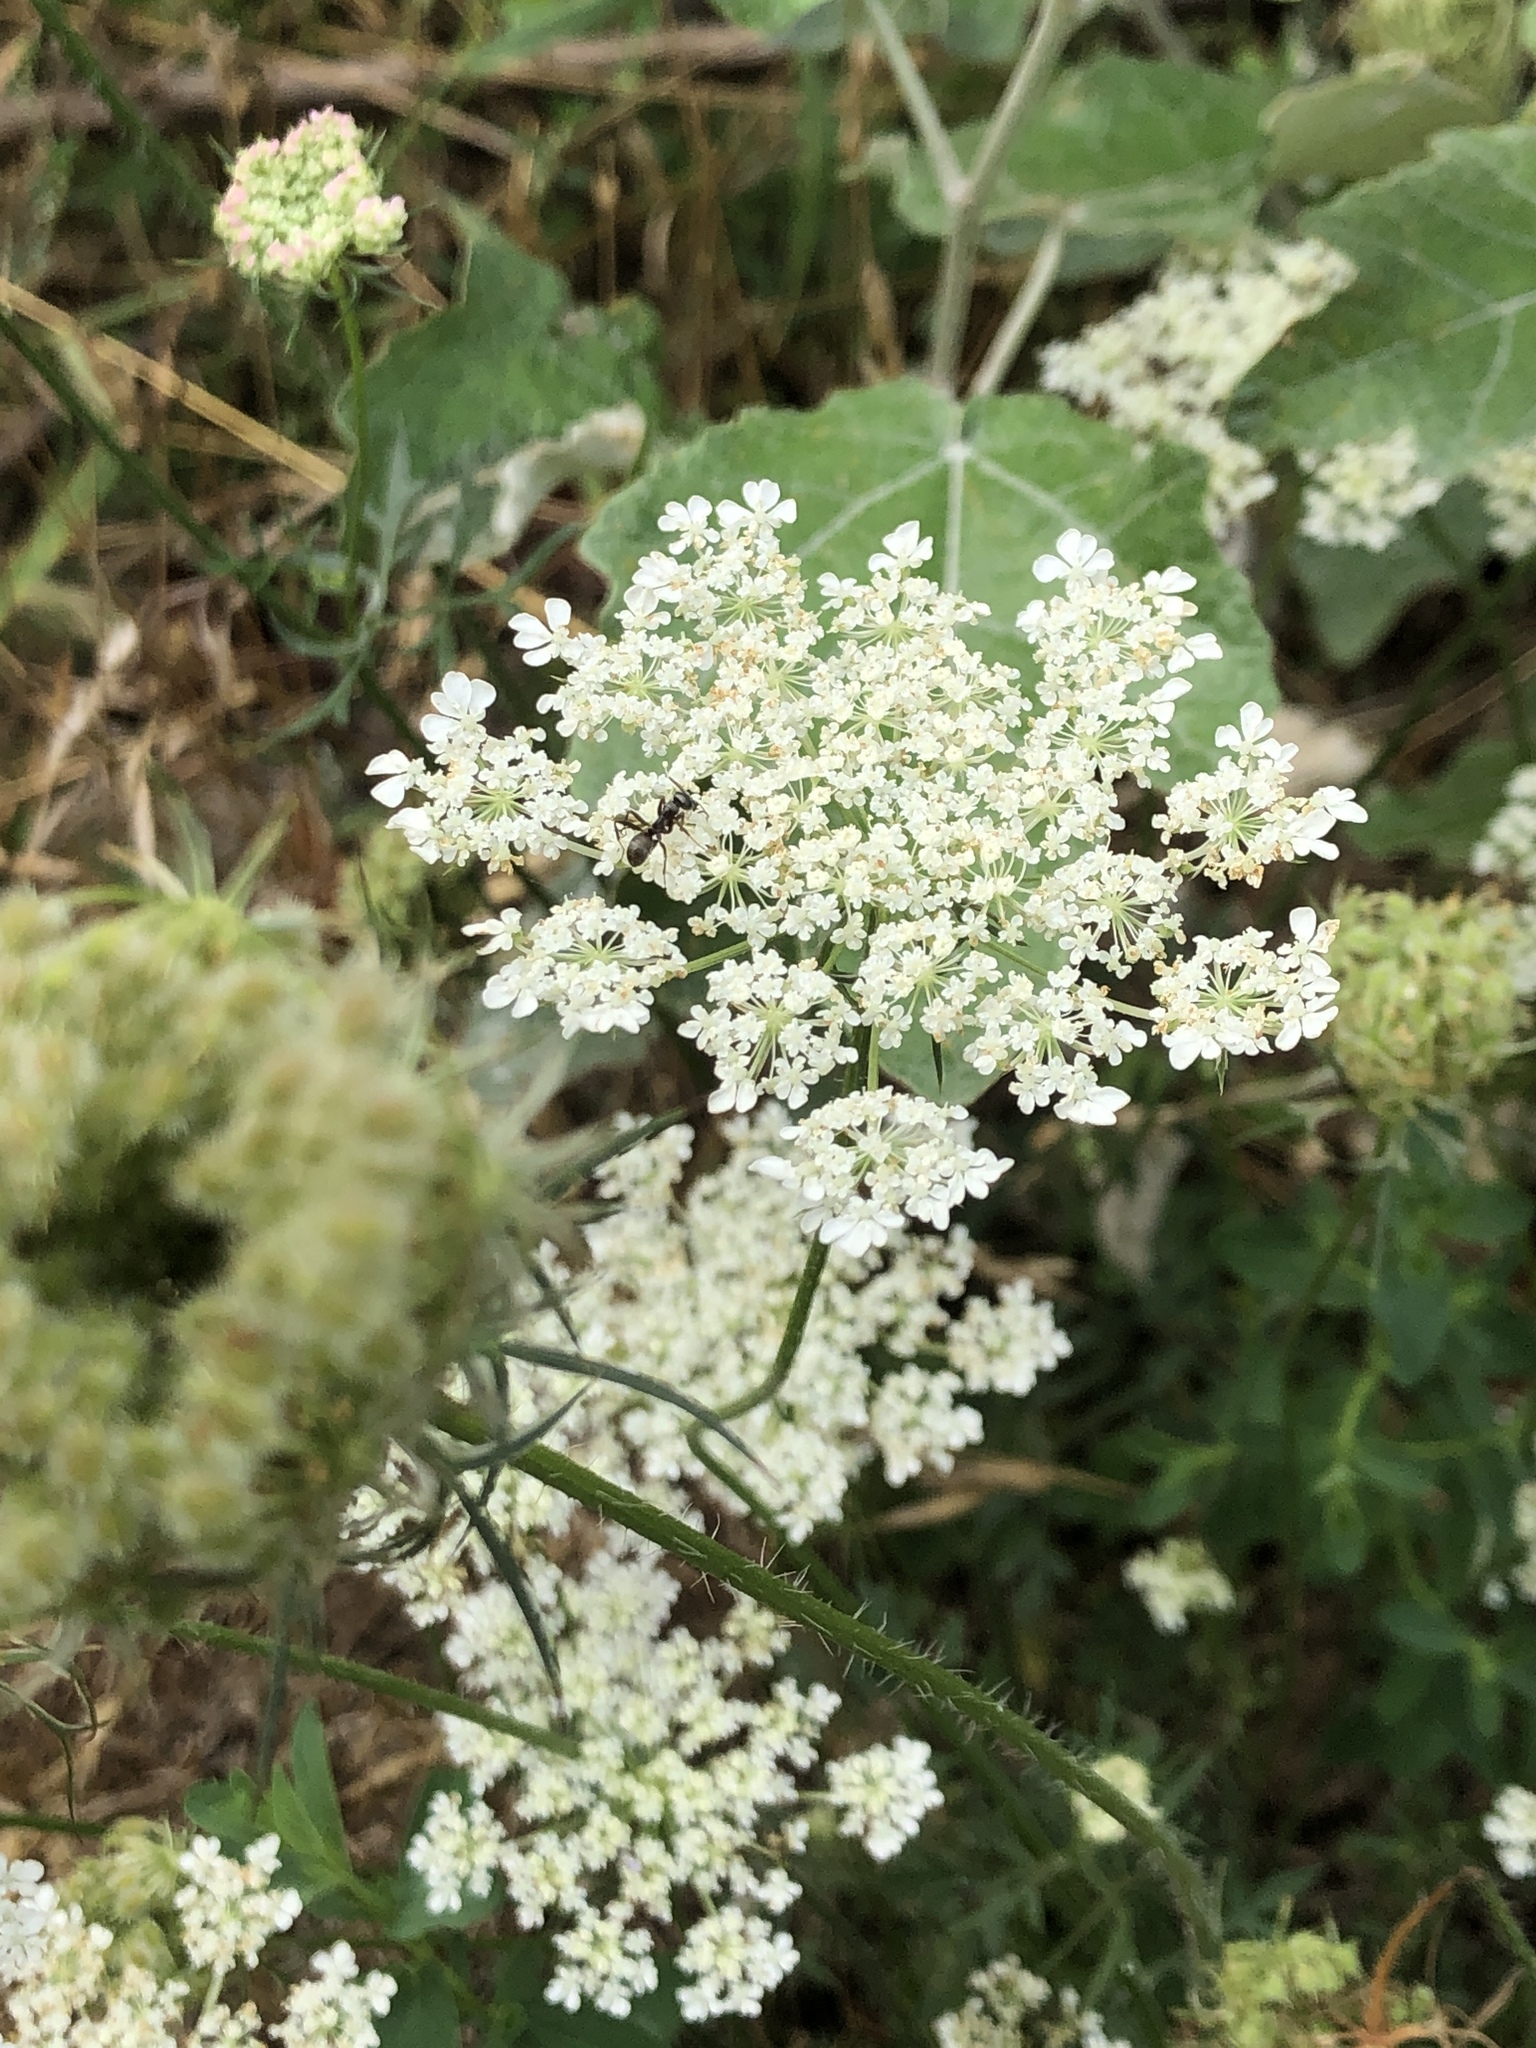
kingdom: Plantae
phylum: Tracheophyta
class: Magnoliopsida
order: Apiales
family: Apiaceae
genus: Daucus
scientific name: Daucus carota
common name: Wild carrot
